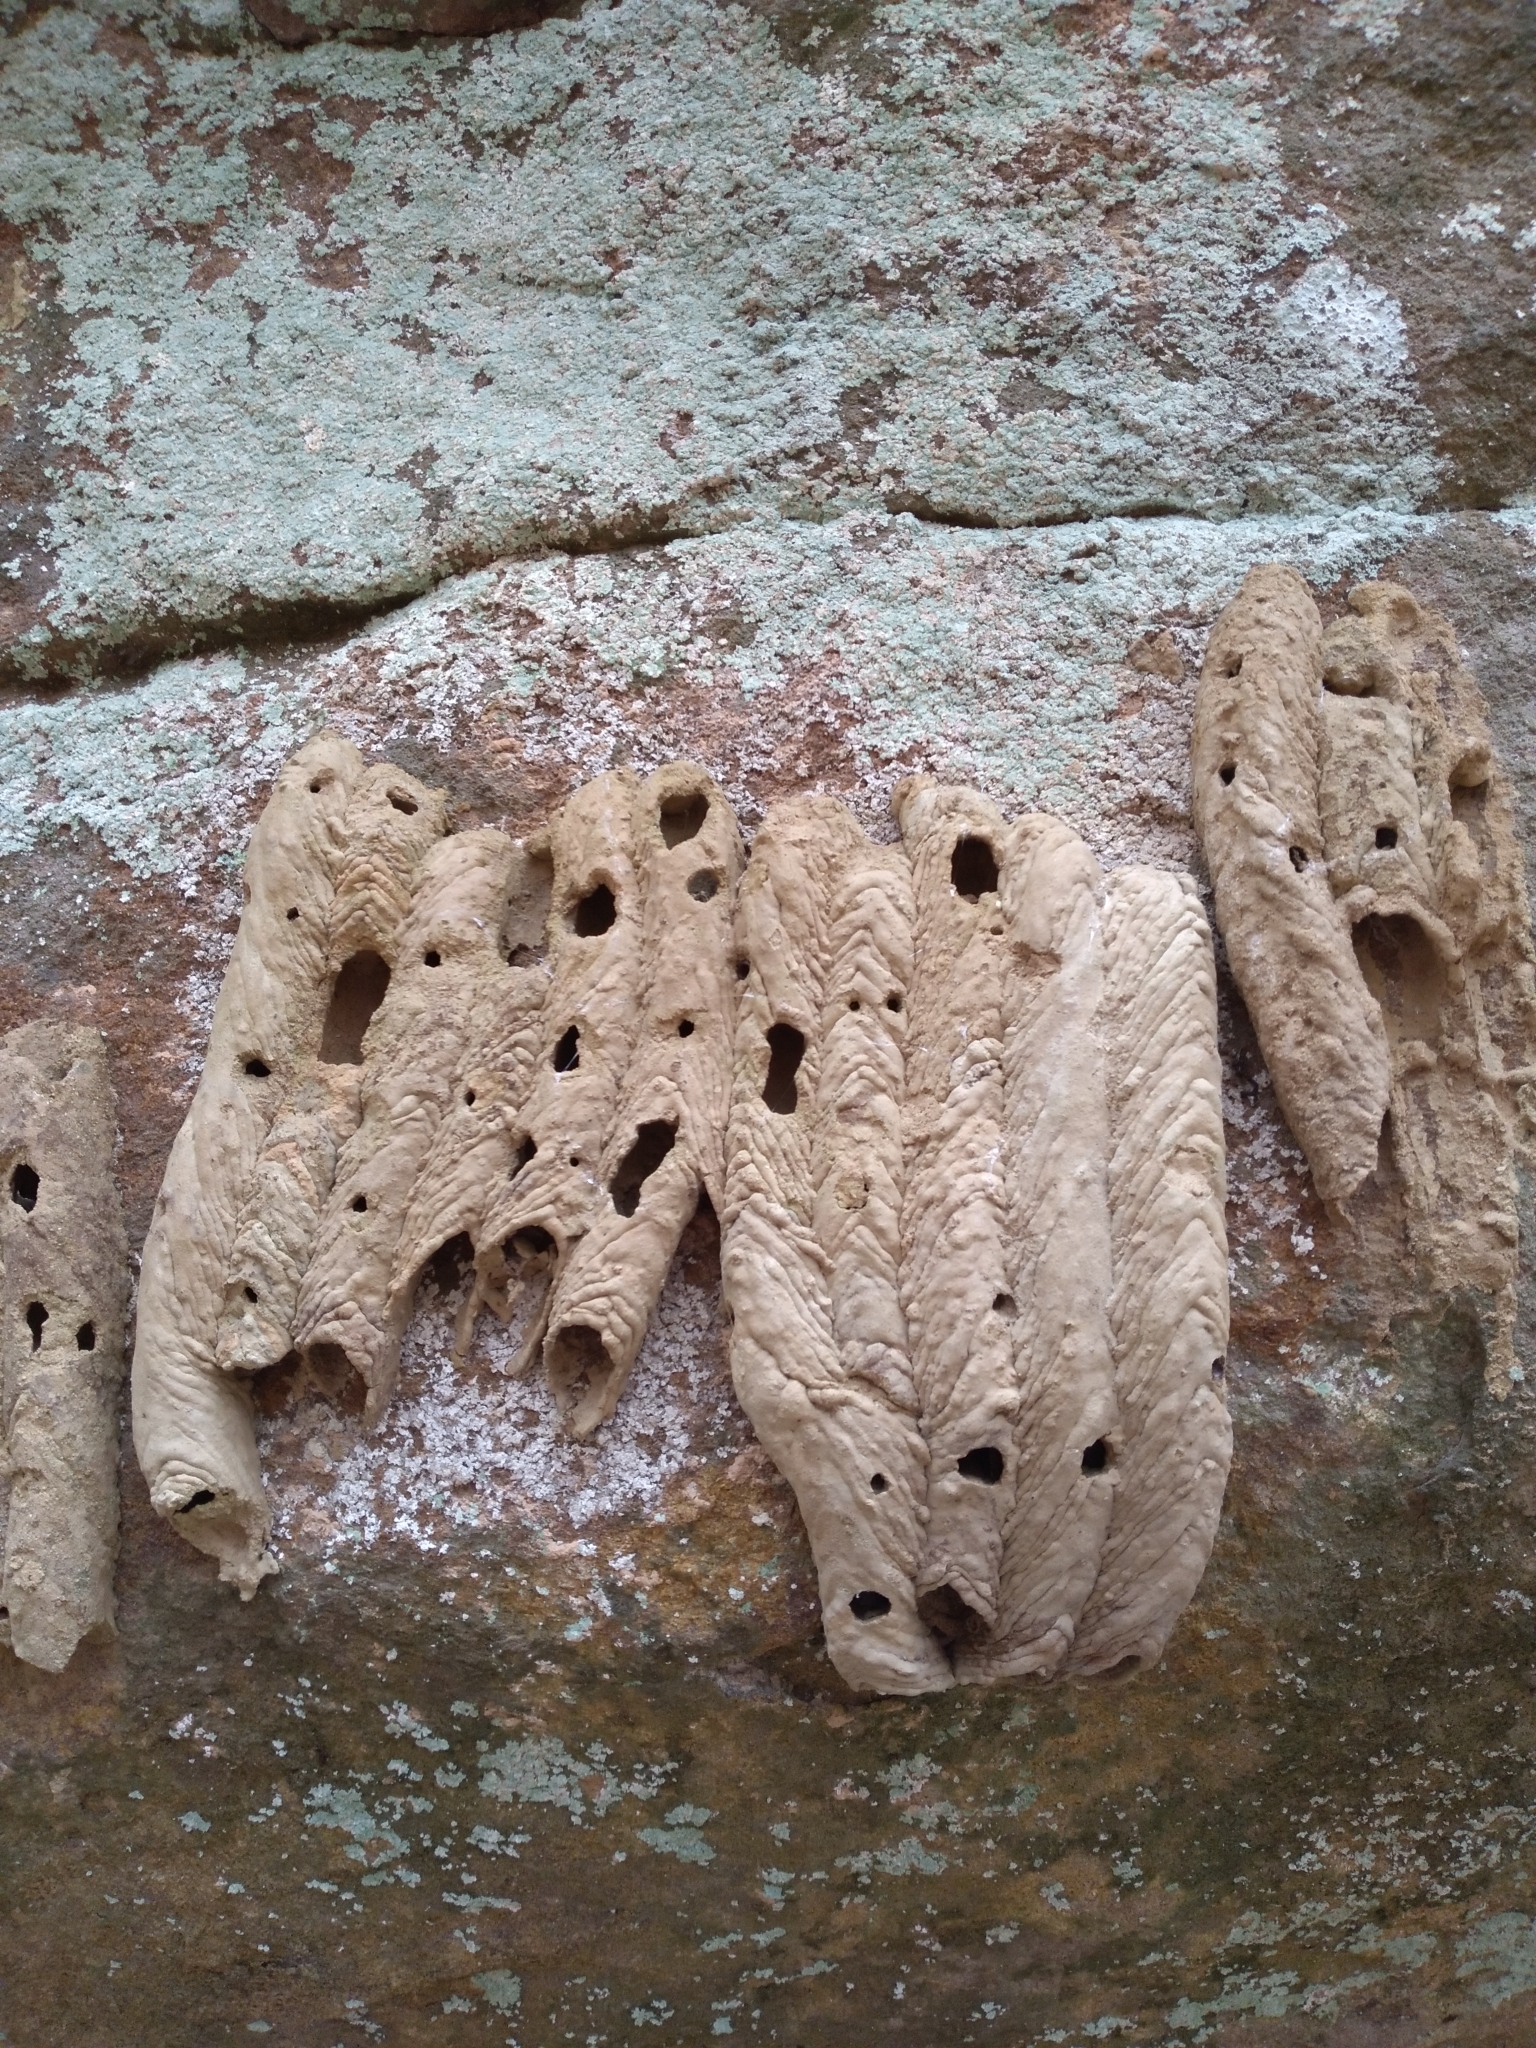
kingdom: Animalia
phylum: Arthropoda
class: Insecta
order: Hymenoptera
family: Crabronidae
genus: Trypoxylon
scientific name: Trypoxylon politum
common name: Organ-pipe mud-dauber wasp
